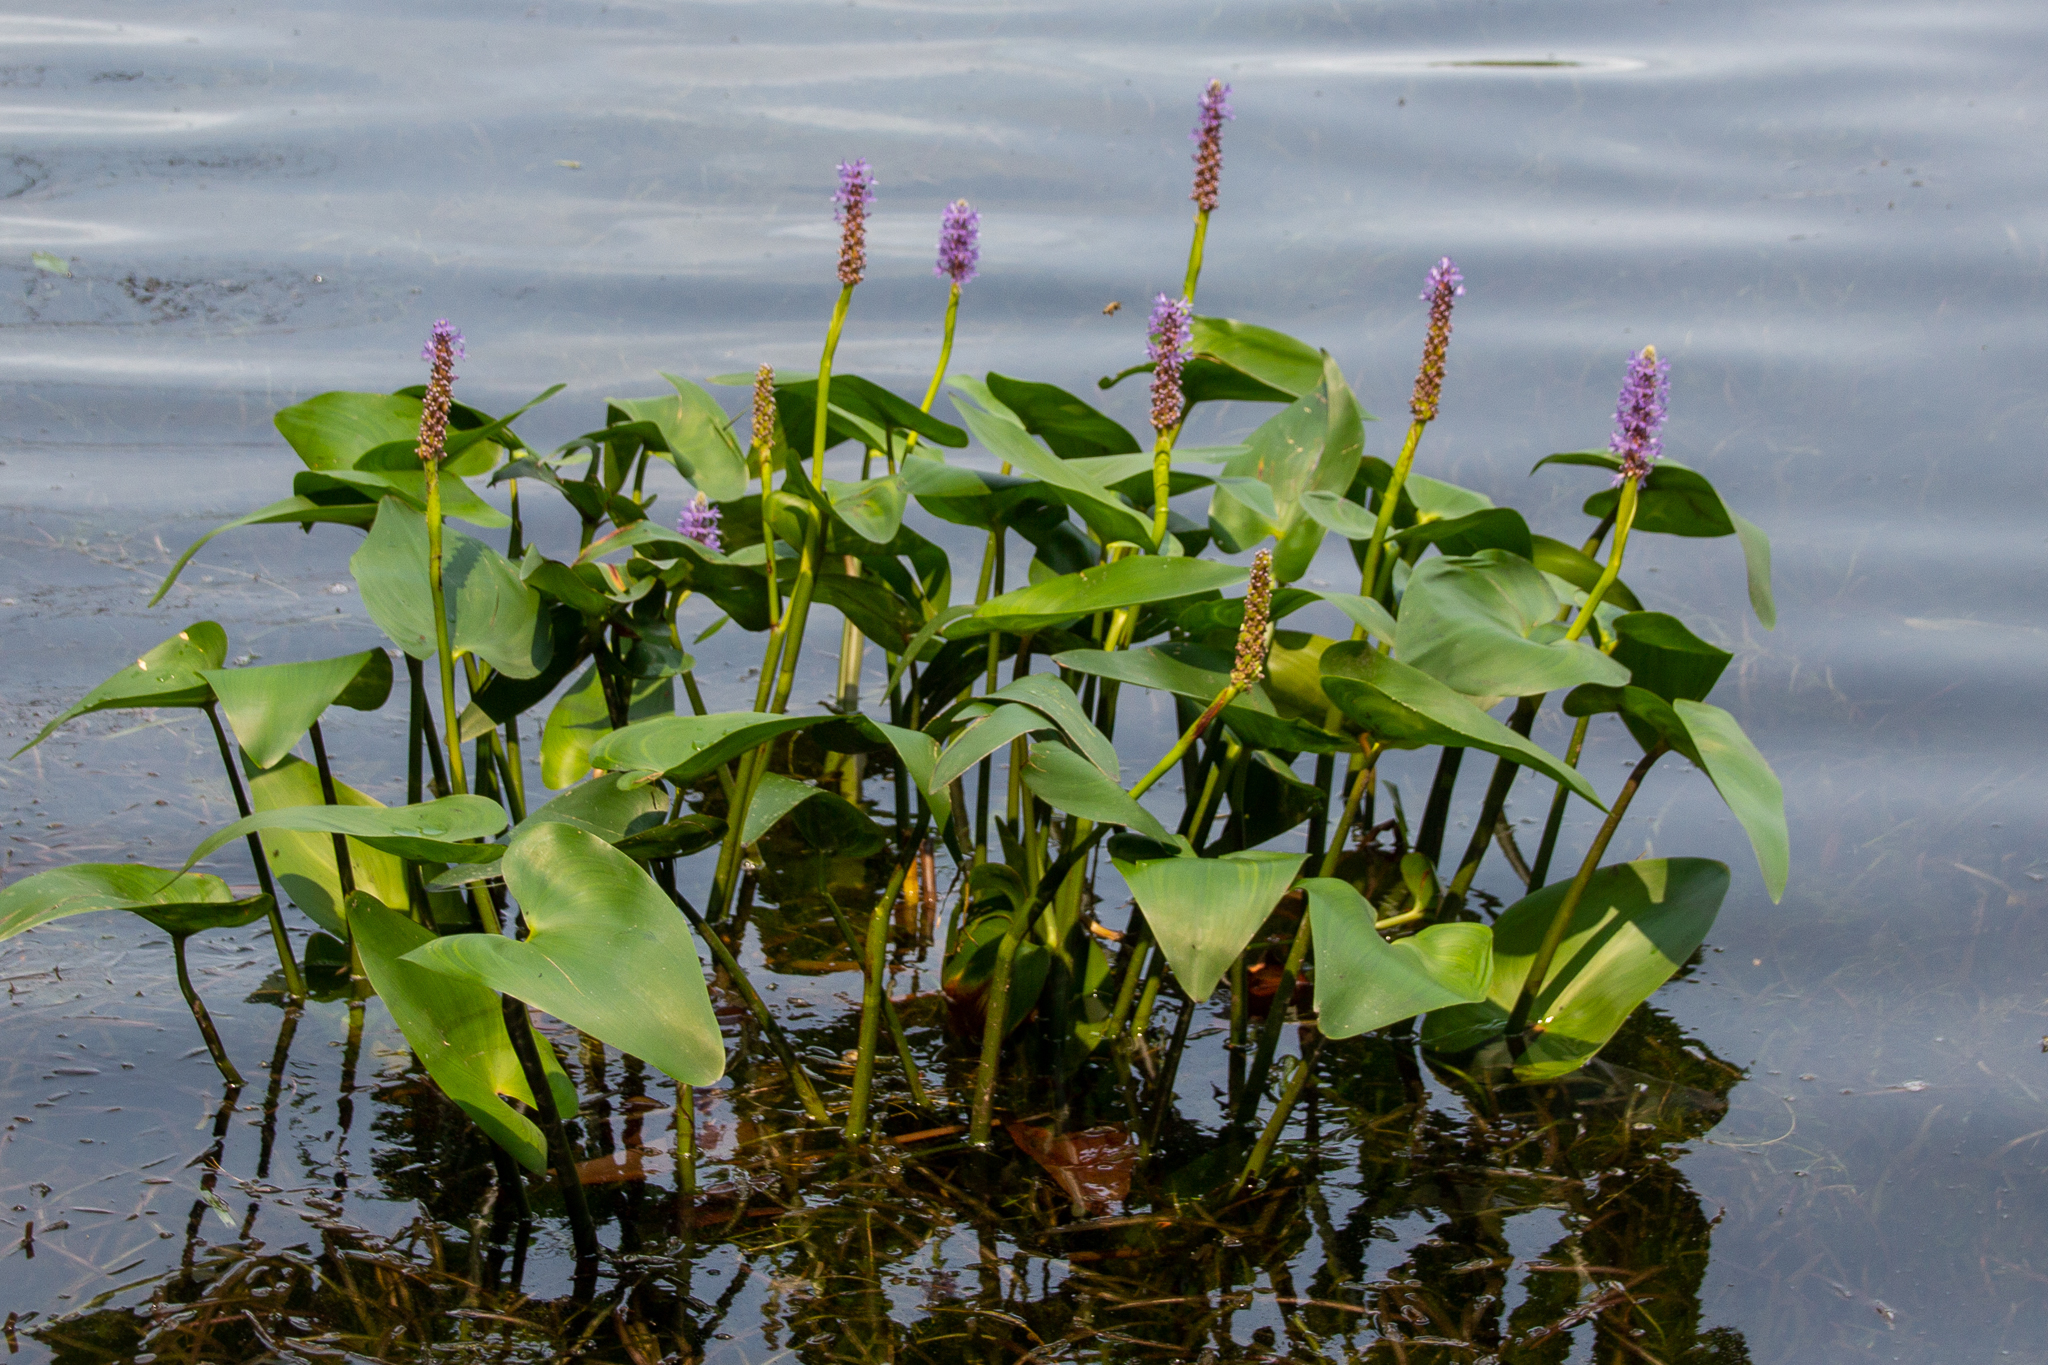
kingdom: Plantae
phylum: Tracheophyta
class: Liliopsida
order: Commelinales
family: Pontederiaceae
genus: Pontederia
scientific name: Pontederia cordata
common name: Pickerelweed
